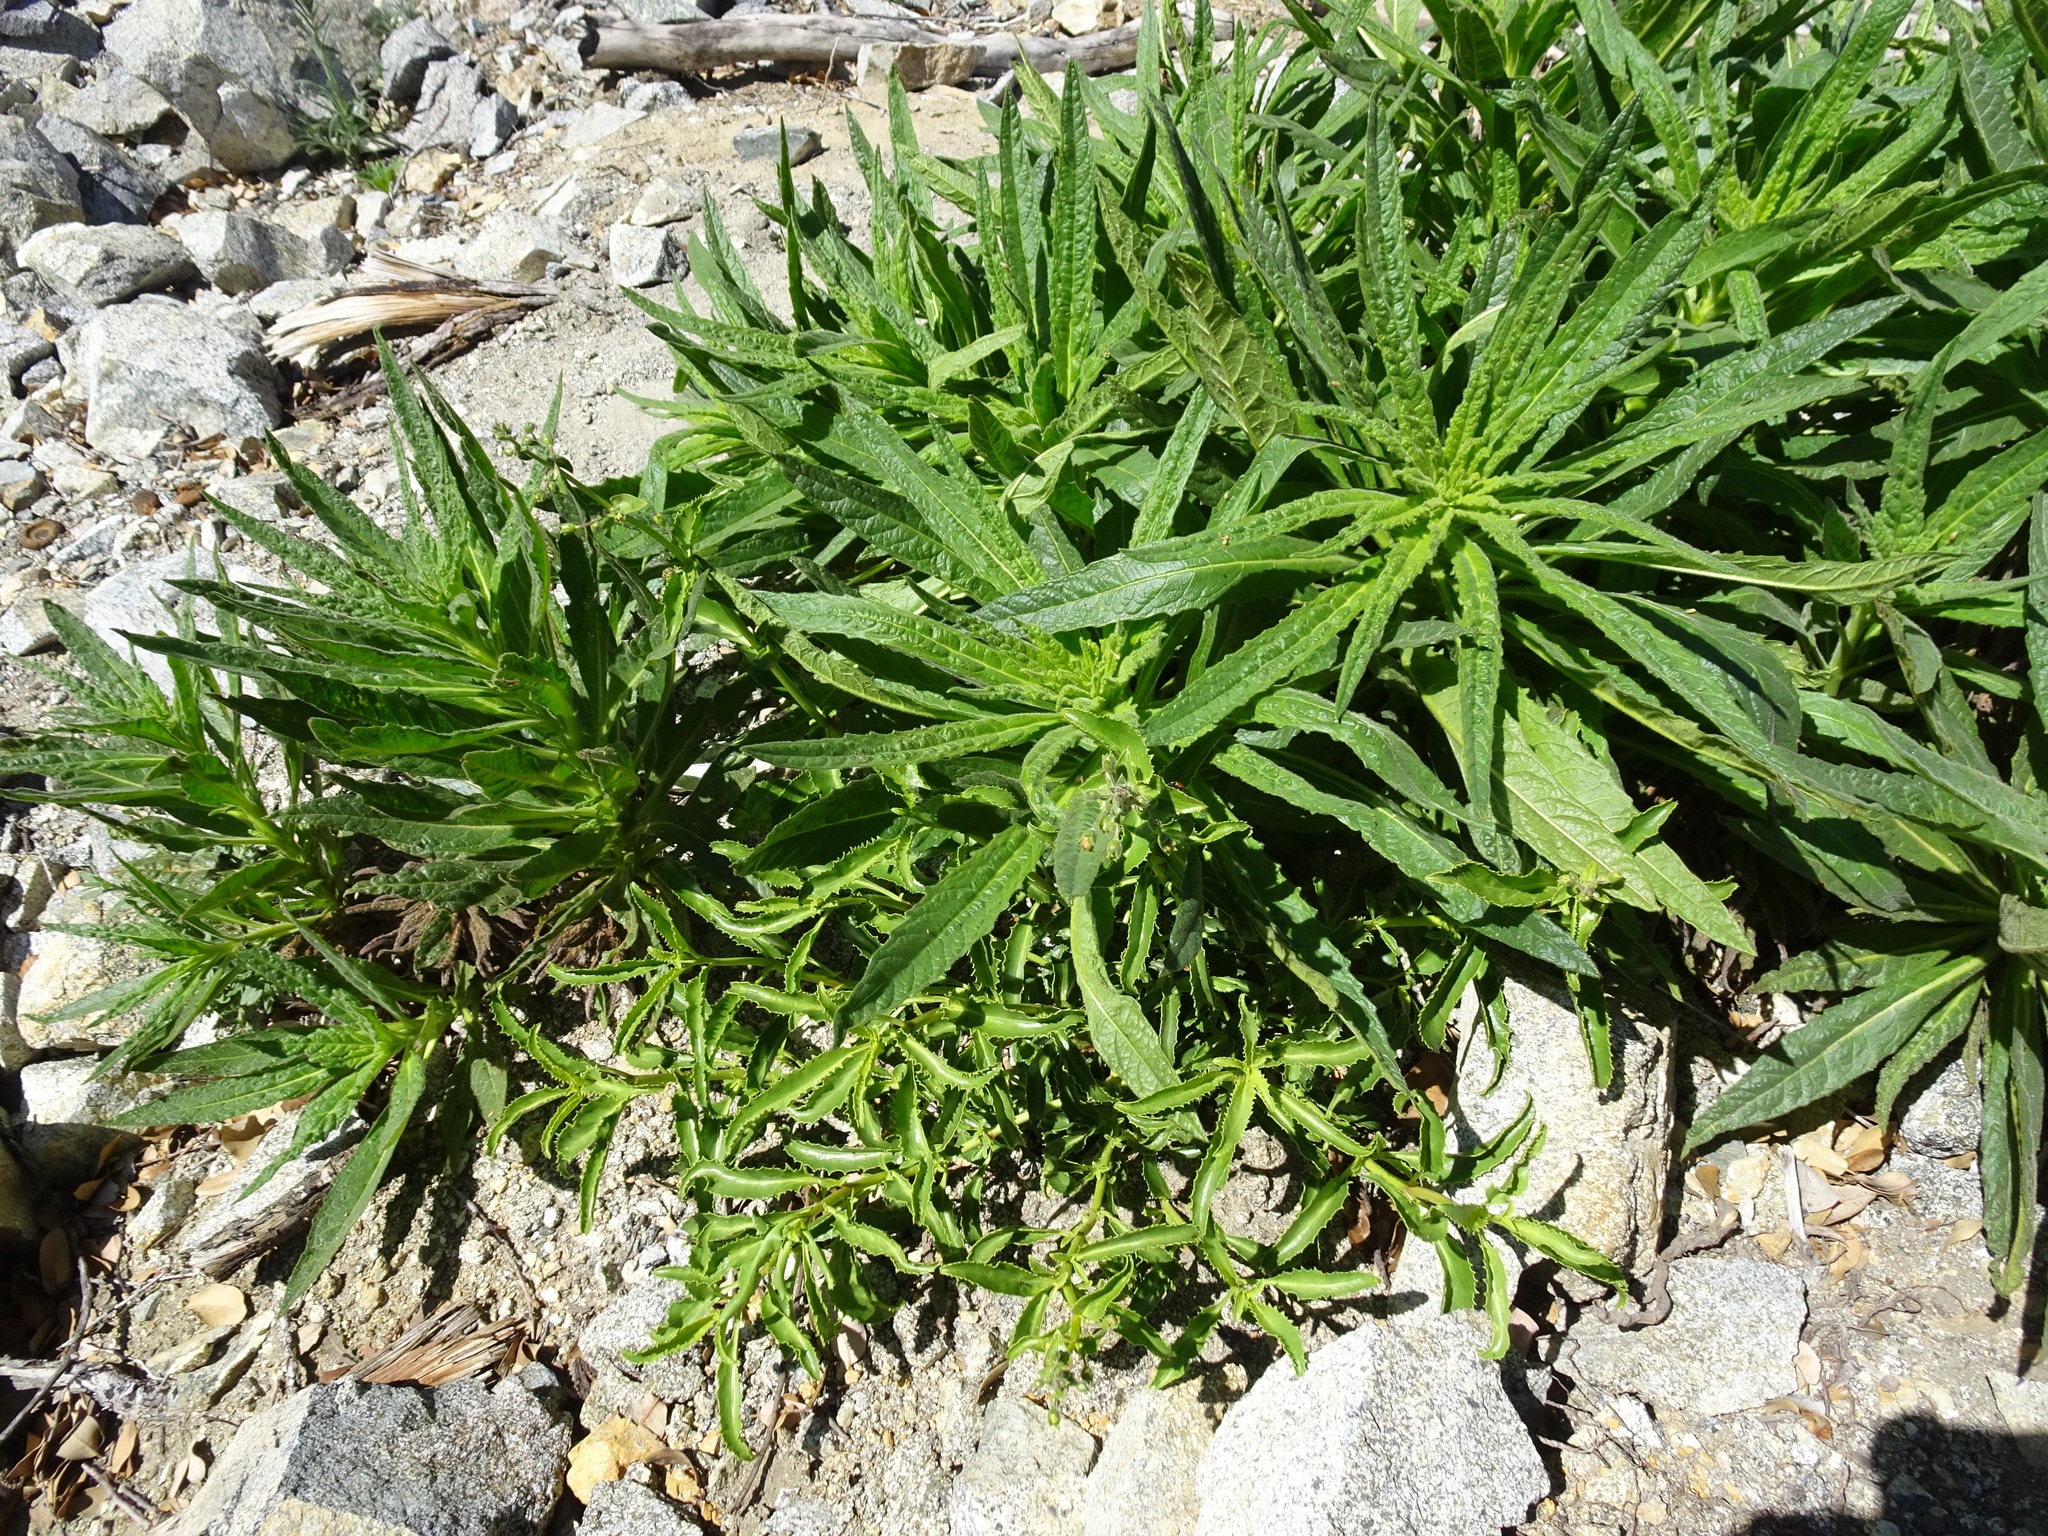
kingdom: Plantae
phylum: Tracheophyta
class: Magnoliopsida
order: Boraginales
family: Namaceae
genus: Turricula
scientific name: Turricula parryi
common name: Poodle-dog-bush
